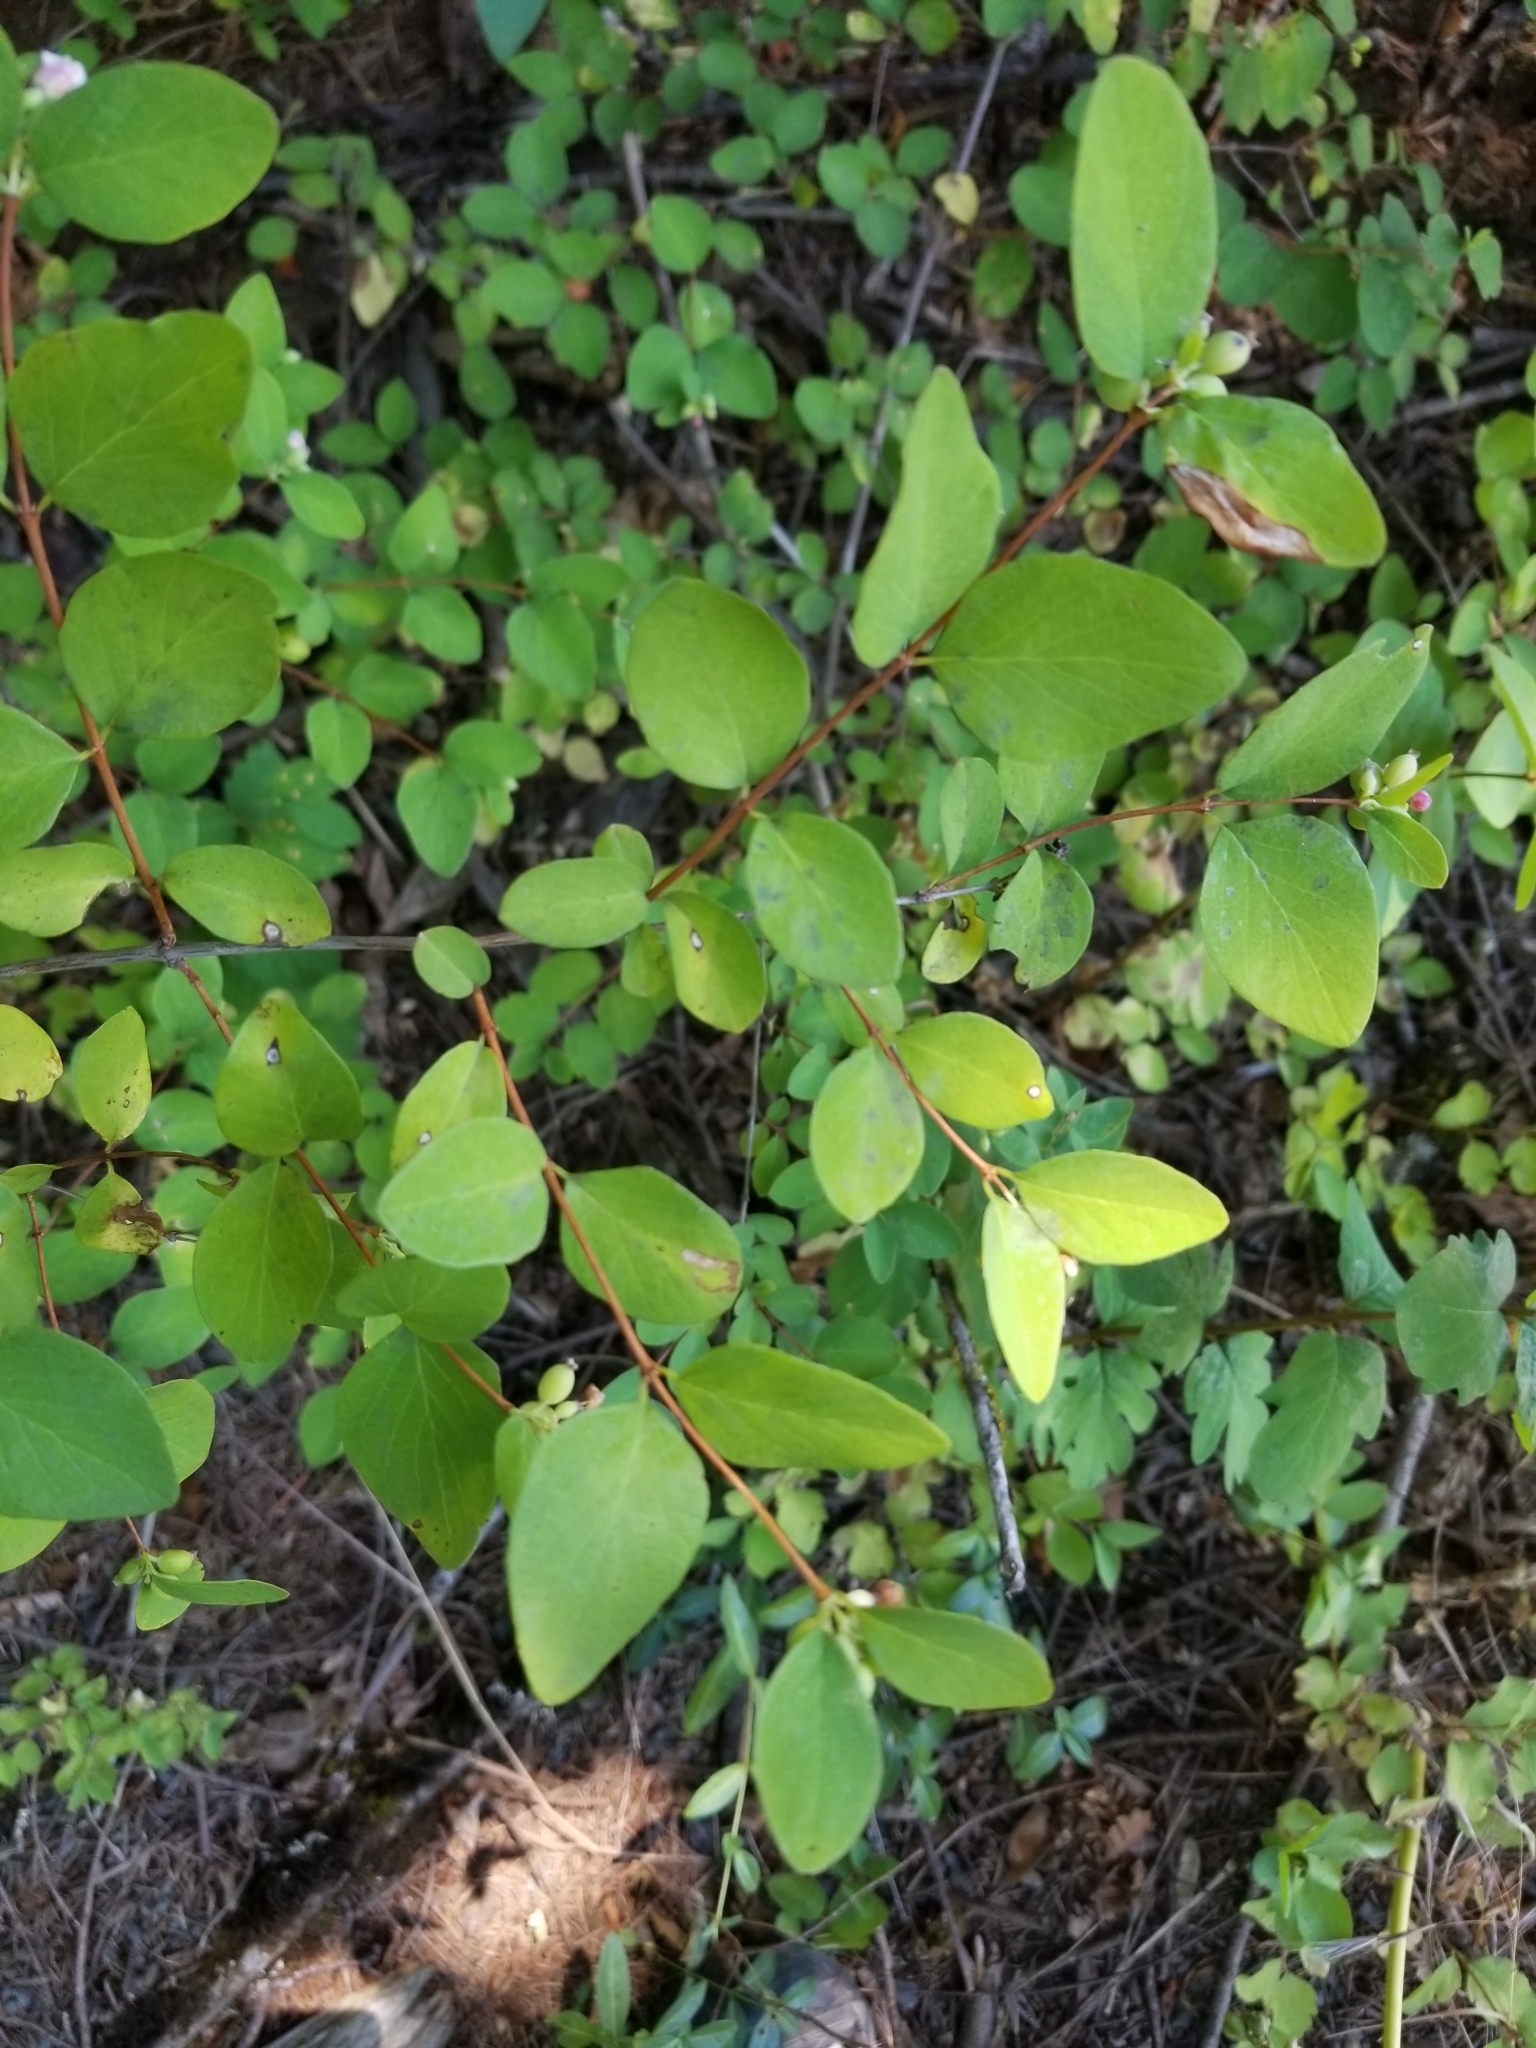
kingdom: Plantae
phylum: Tracheophyta
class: Magnoliopsida
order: Dipsacales
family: Caprifoliaceae
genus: Symphoricarpos
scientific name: Symphoricarpos albus
